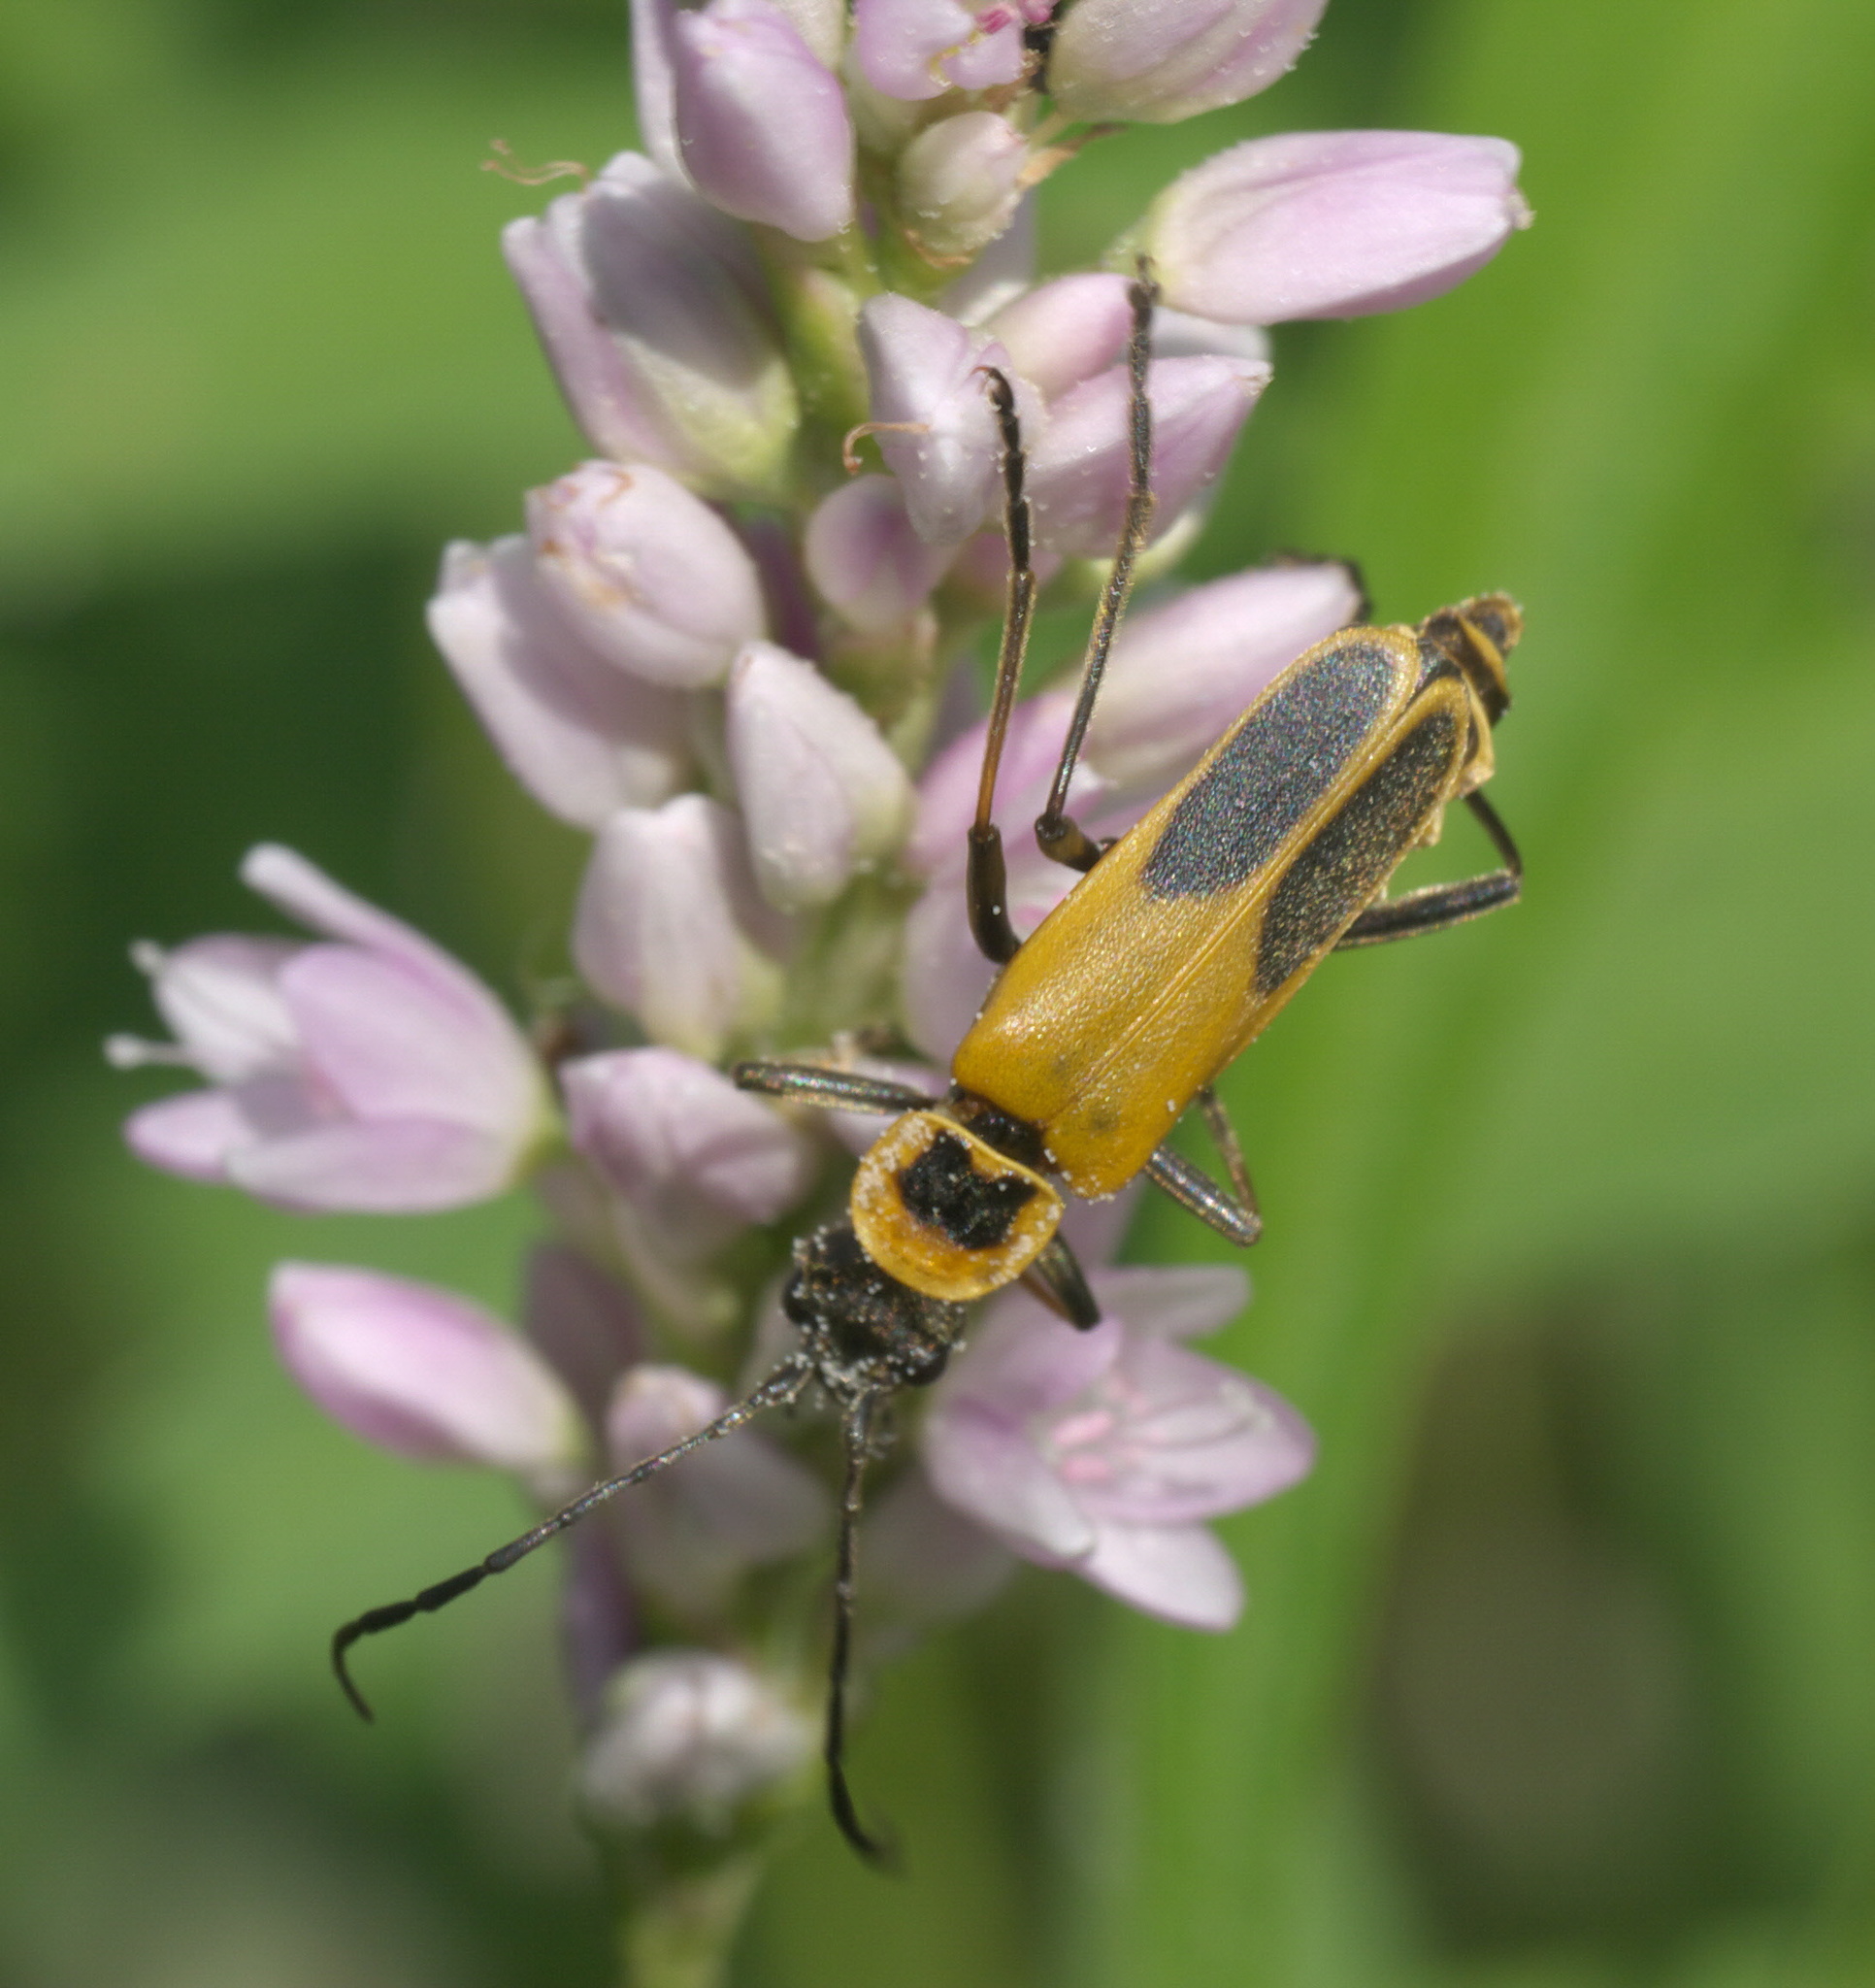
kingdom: Animalia
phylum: Arthropoda
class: Insecta
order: Coleoptera
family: Cantharidae
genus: Chauliognathus
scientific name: Chauliognathus pensylvanicus
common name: Goldenrod soldier beetle
